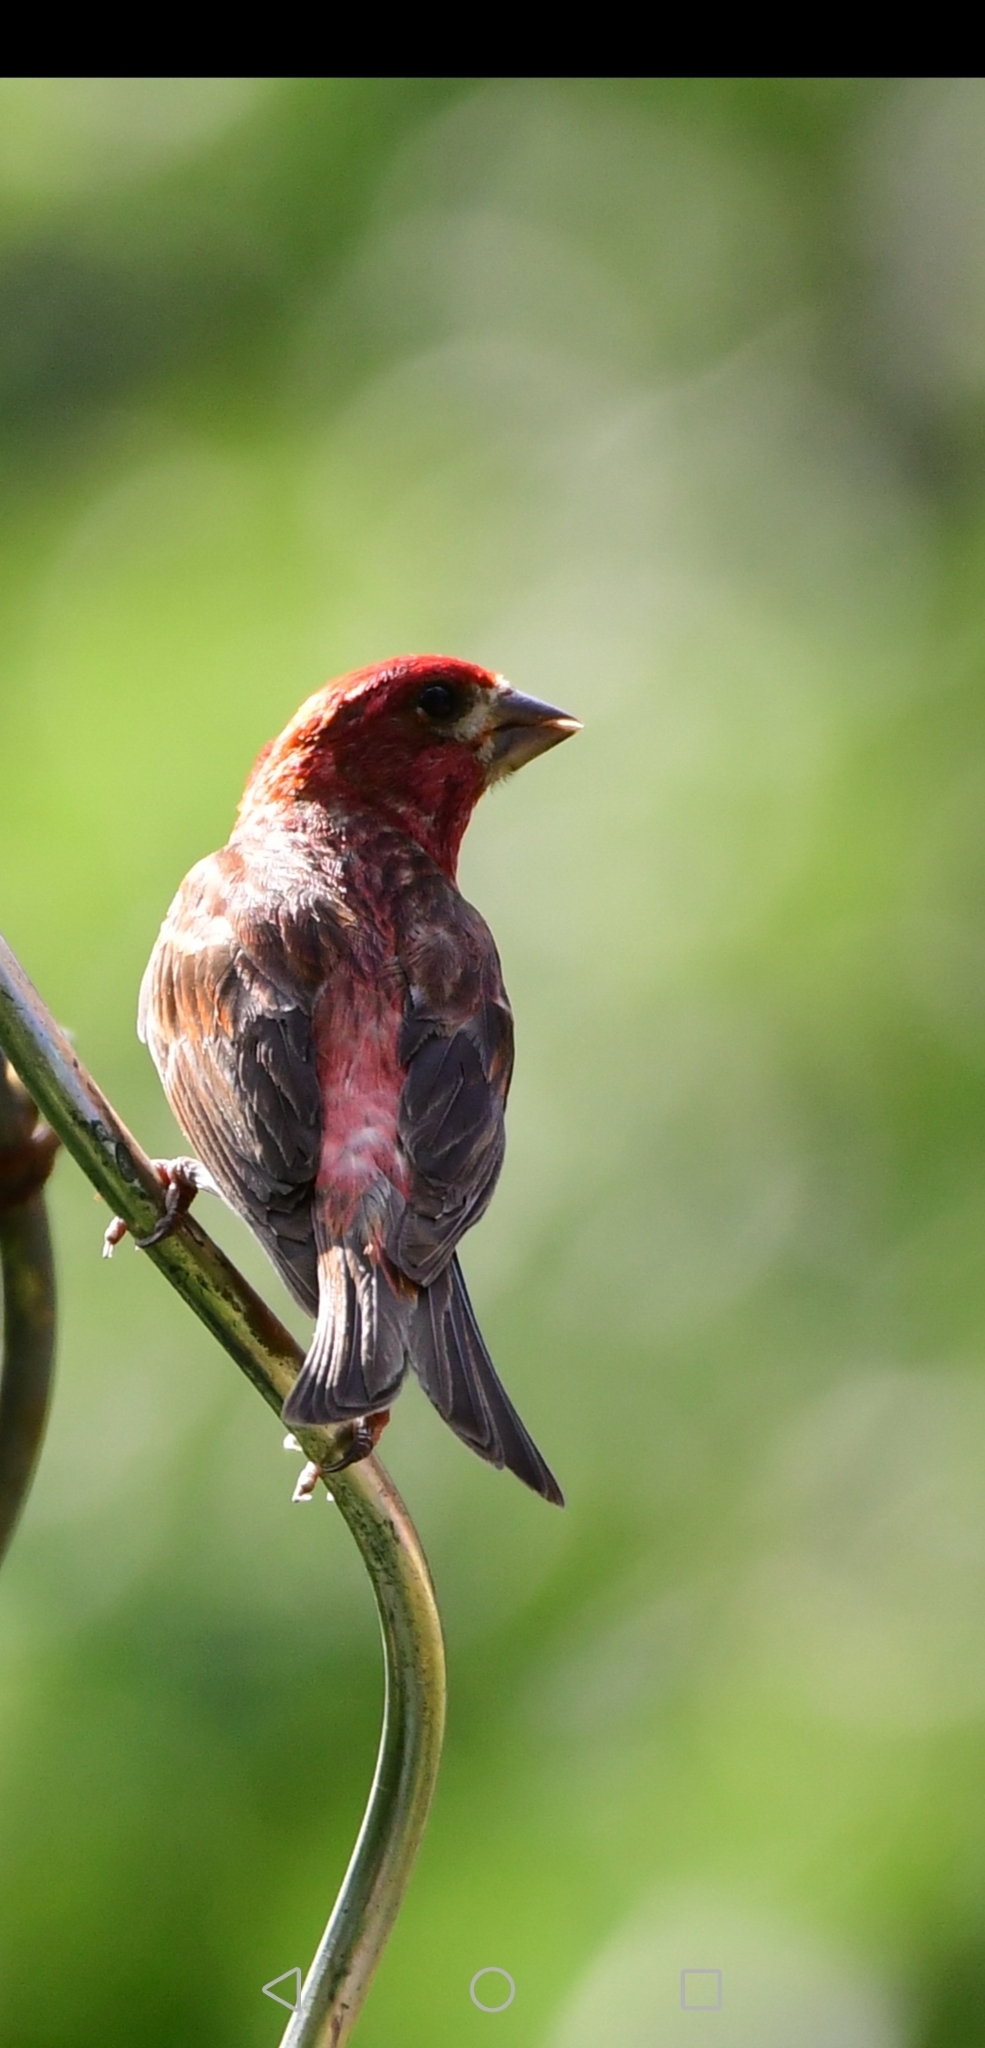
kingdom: Animalia
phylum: Chordata
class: Aves
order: Passeriformes
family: Fringillidae
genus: Haemorhous
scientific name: Haemorhous purpureus
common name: Purple finch
